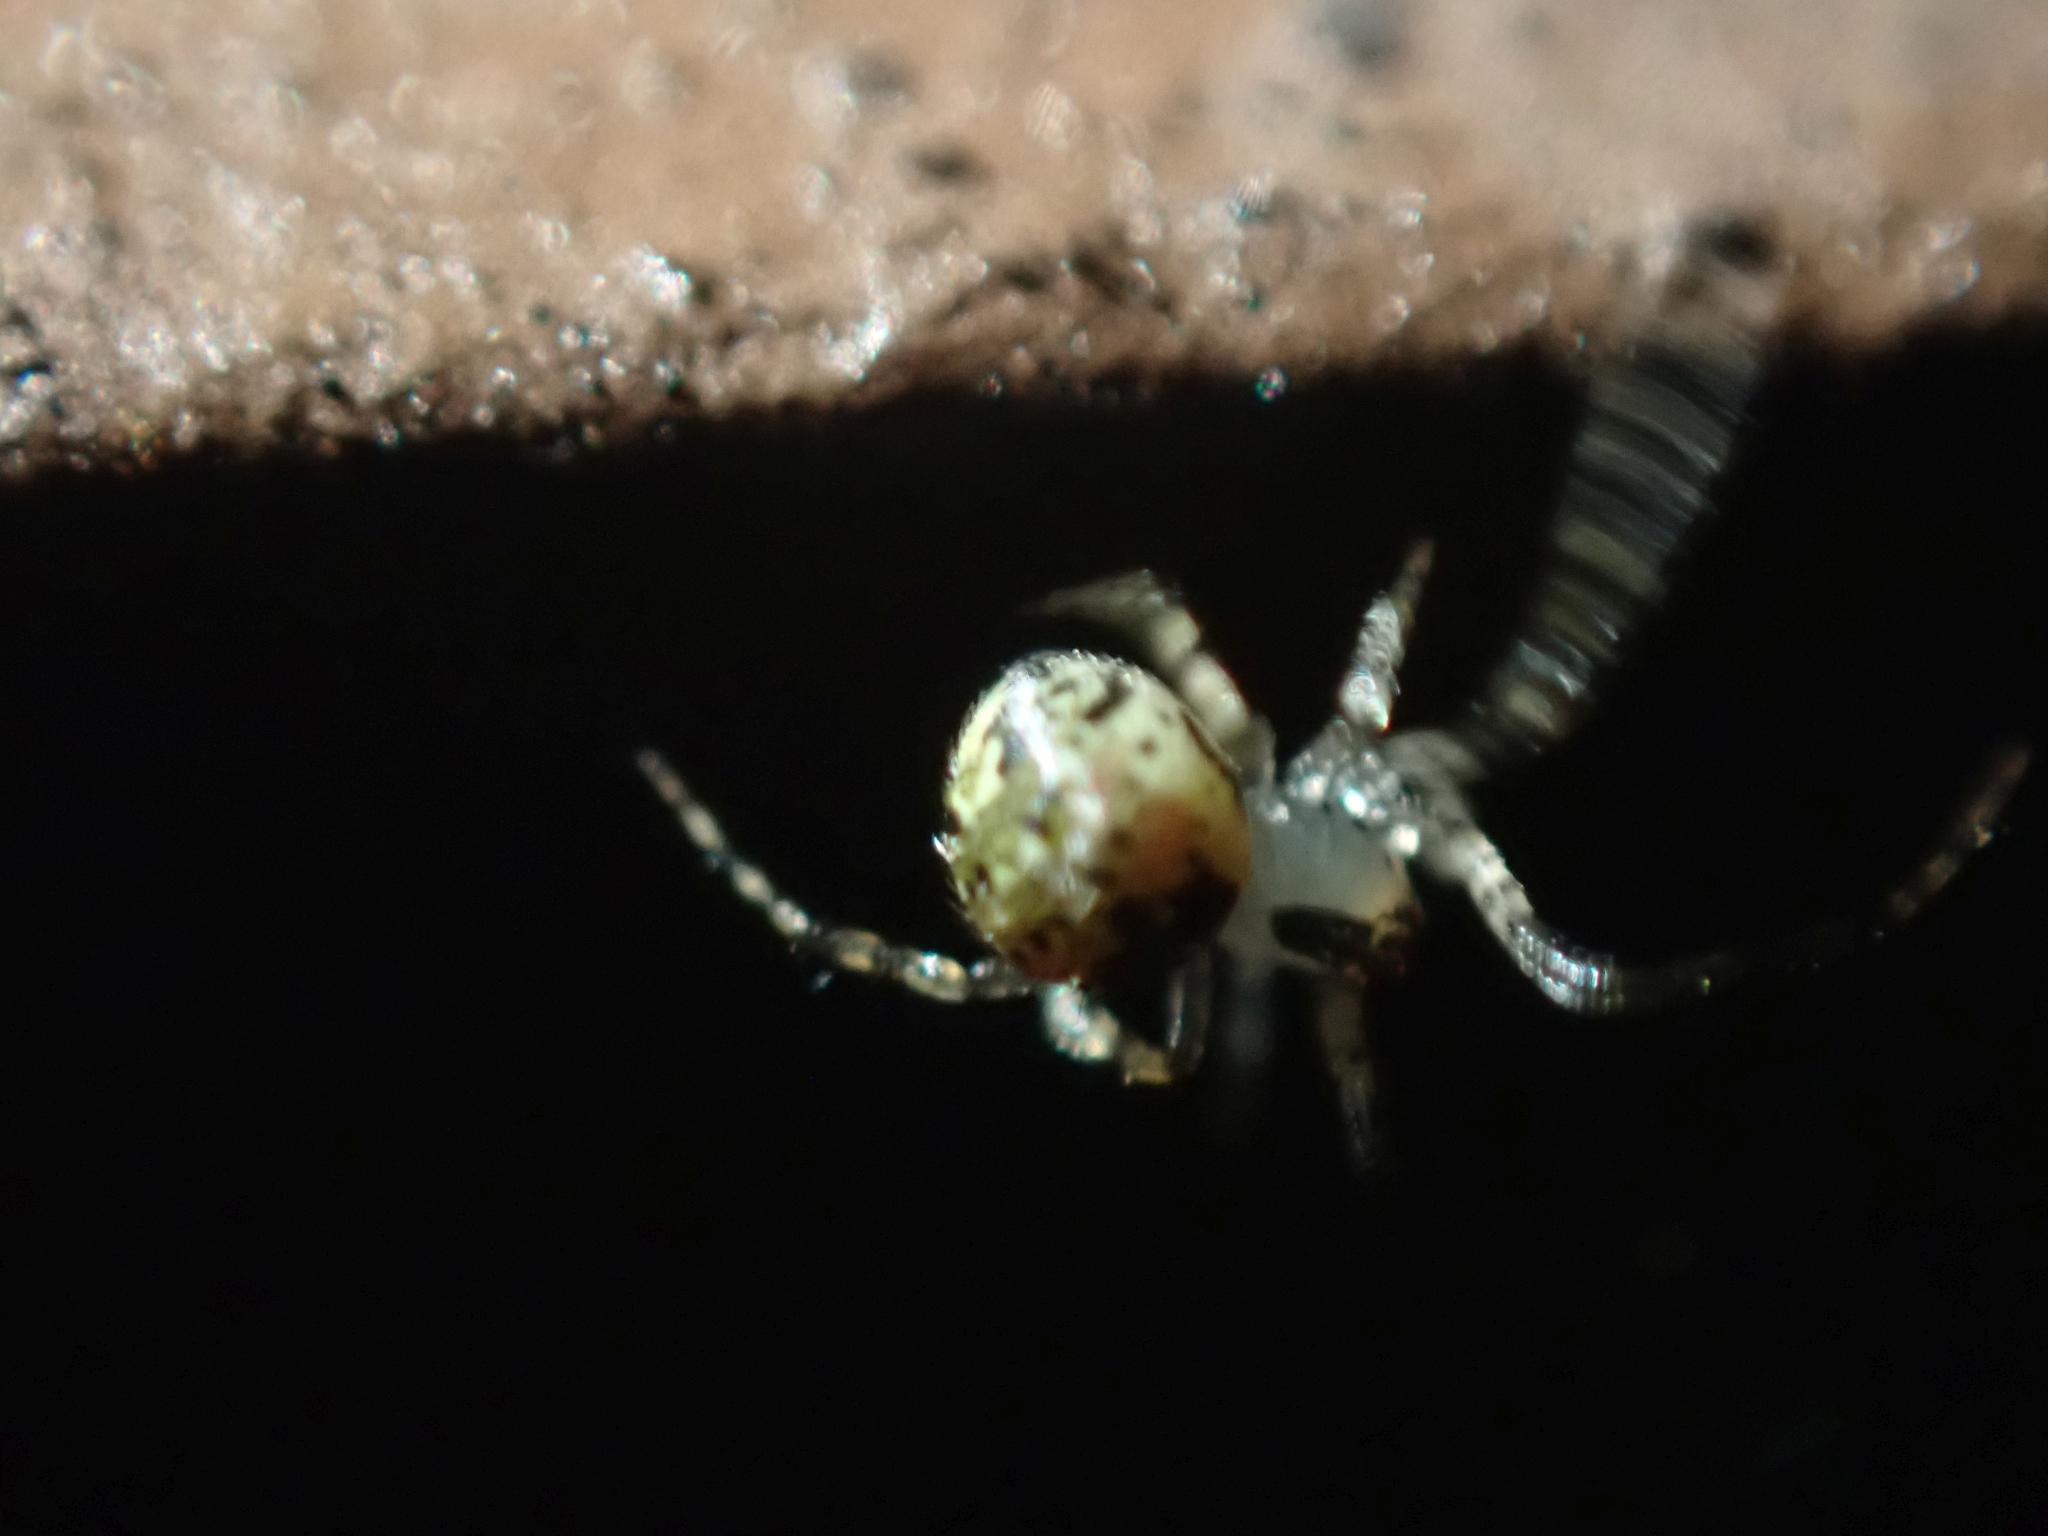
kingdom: Animalia
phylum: Arthropoda
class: Arachnida
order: Araneae
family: Theridiidae
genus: Platnickina
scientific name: Platnickina tincta
